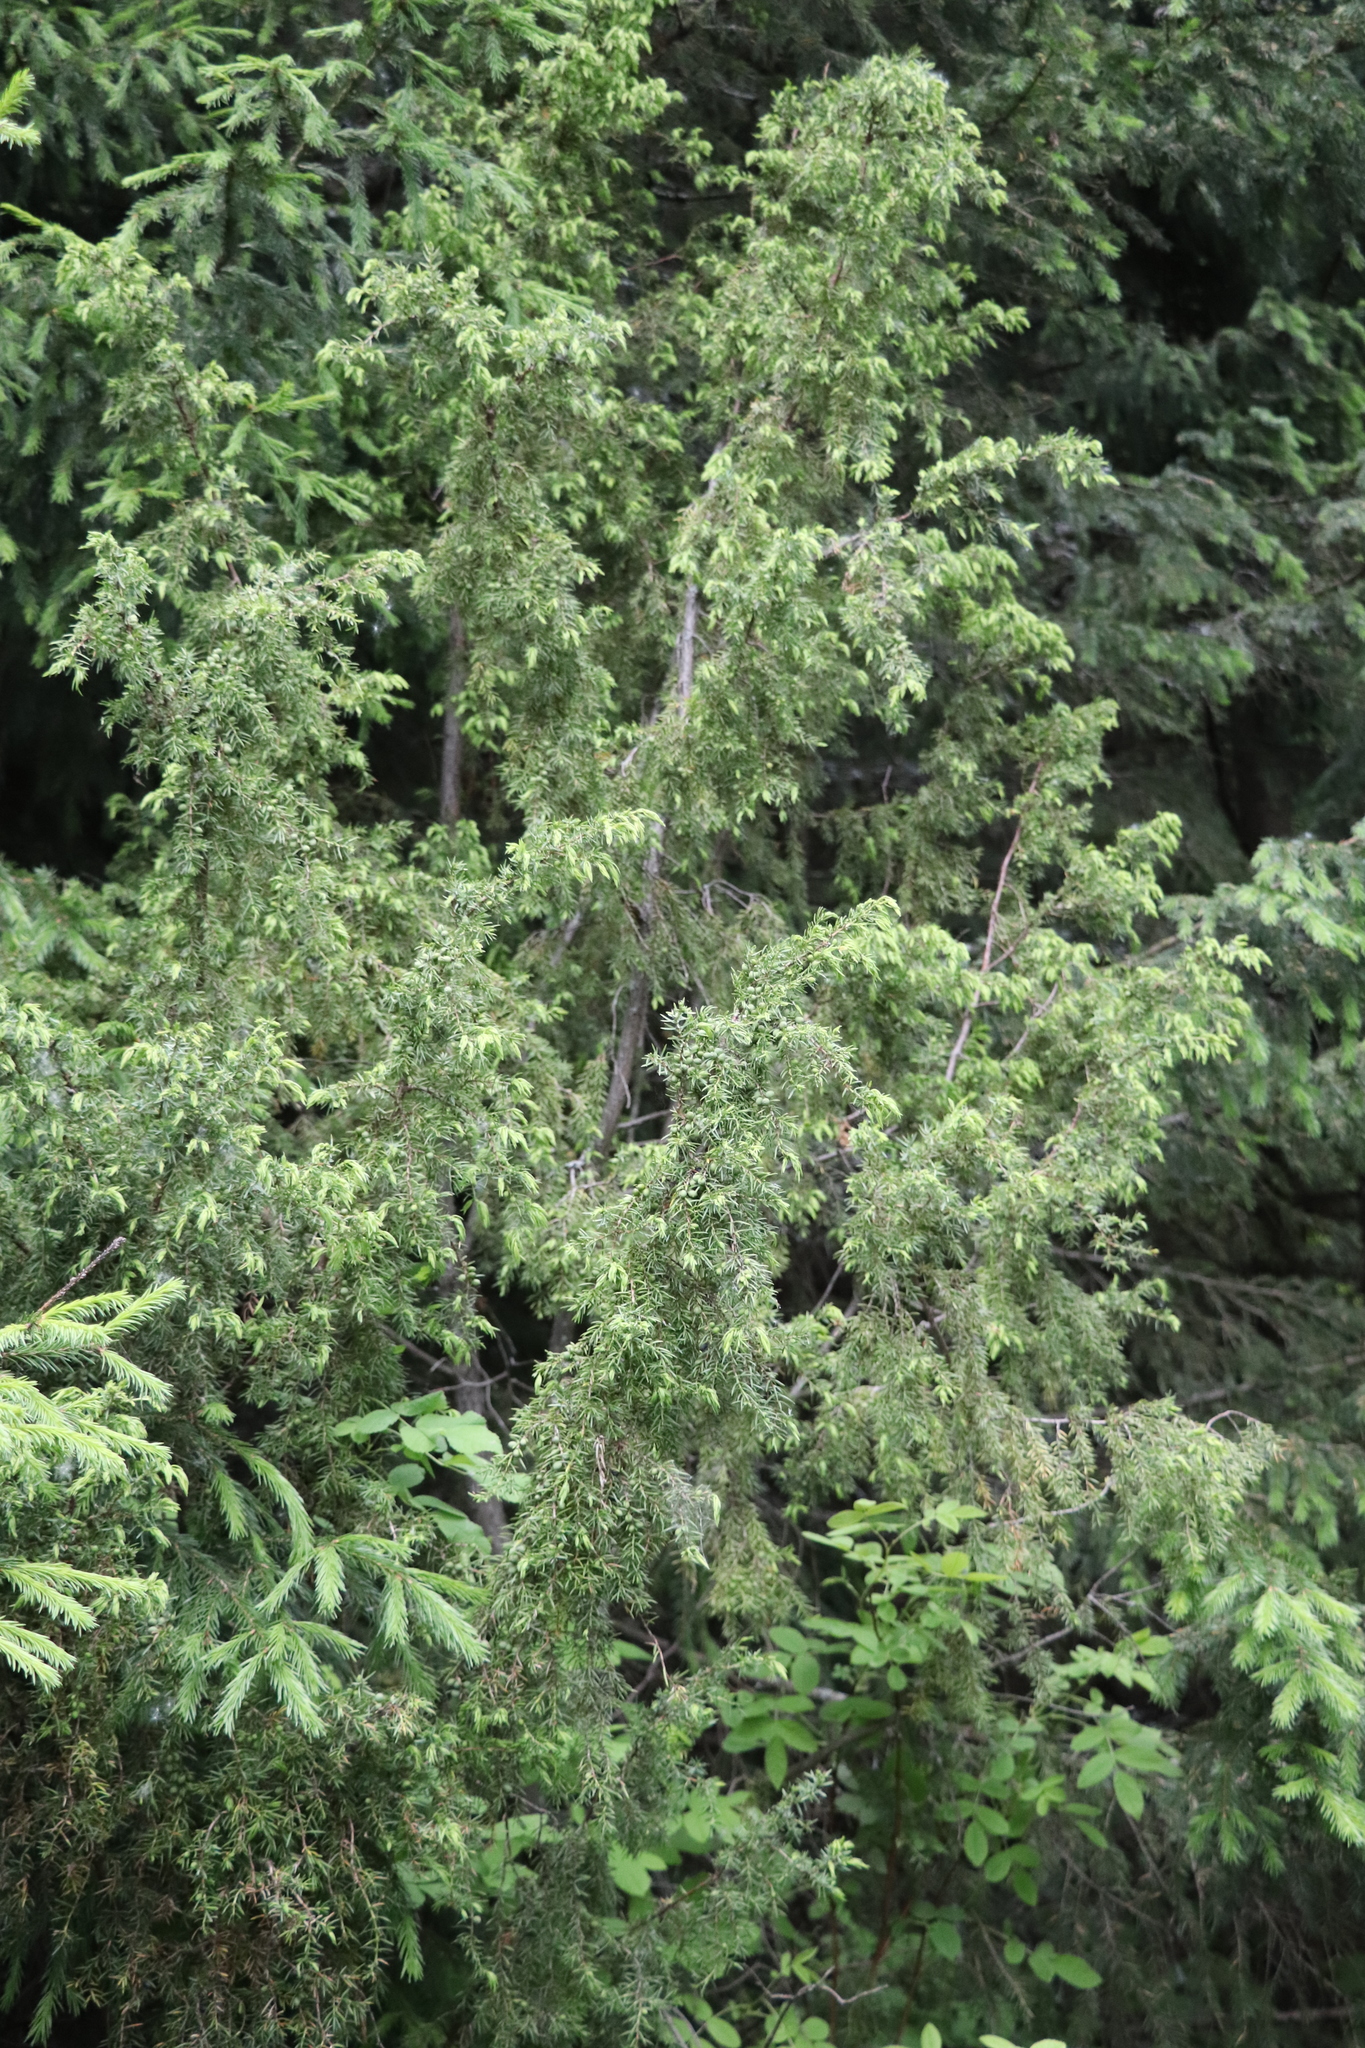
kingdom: Plantae
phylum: Tracheophyta
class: Pinopsida
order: Pinales
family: Cupressaceae
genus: Juniperus
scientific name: Juniperus communis
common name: Common juniper
